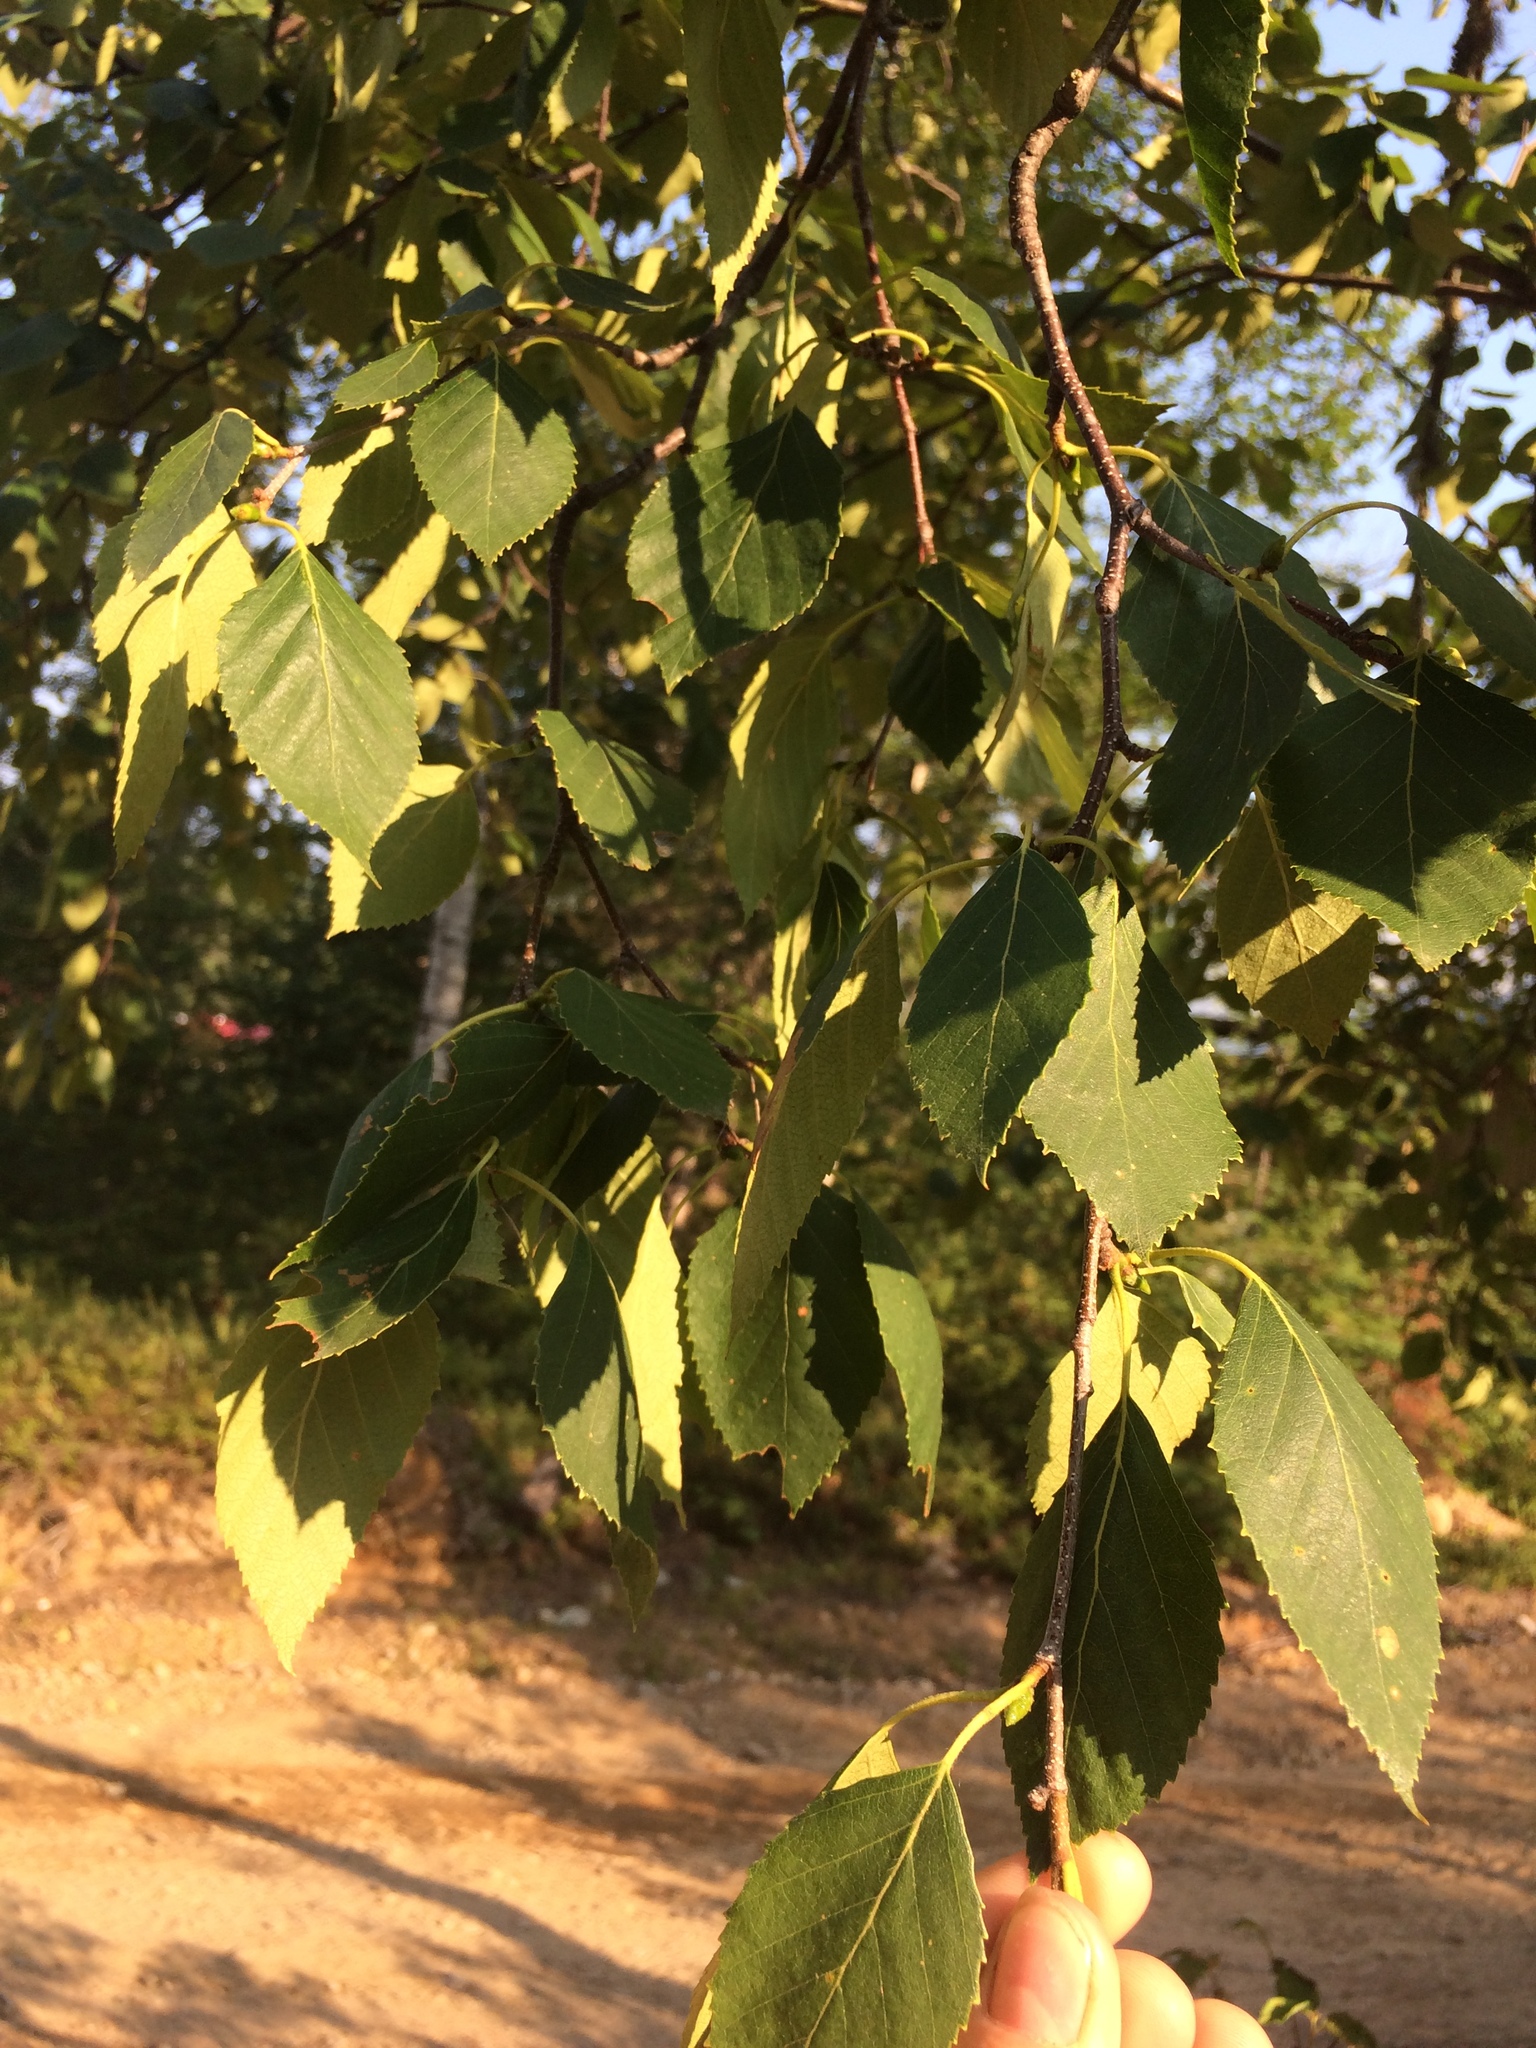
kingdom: Plantae
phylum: Tracheophyta
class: Magnoliopsida
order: Fagales
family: Betulaceae
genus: Betula
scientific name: Betula papyrifera
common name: Paper birch
